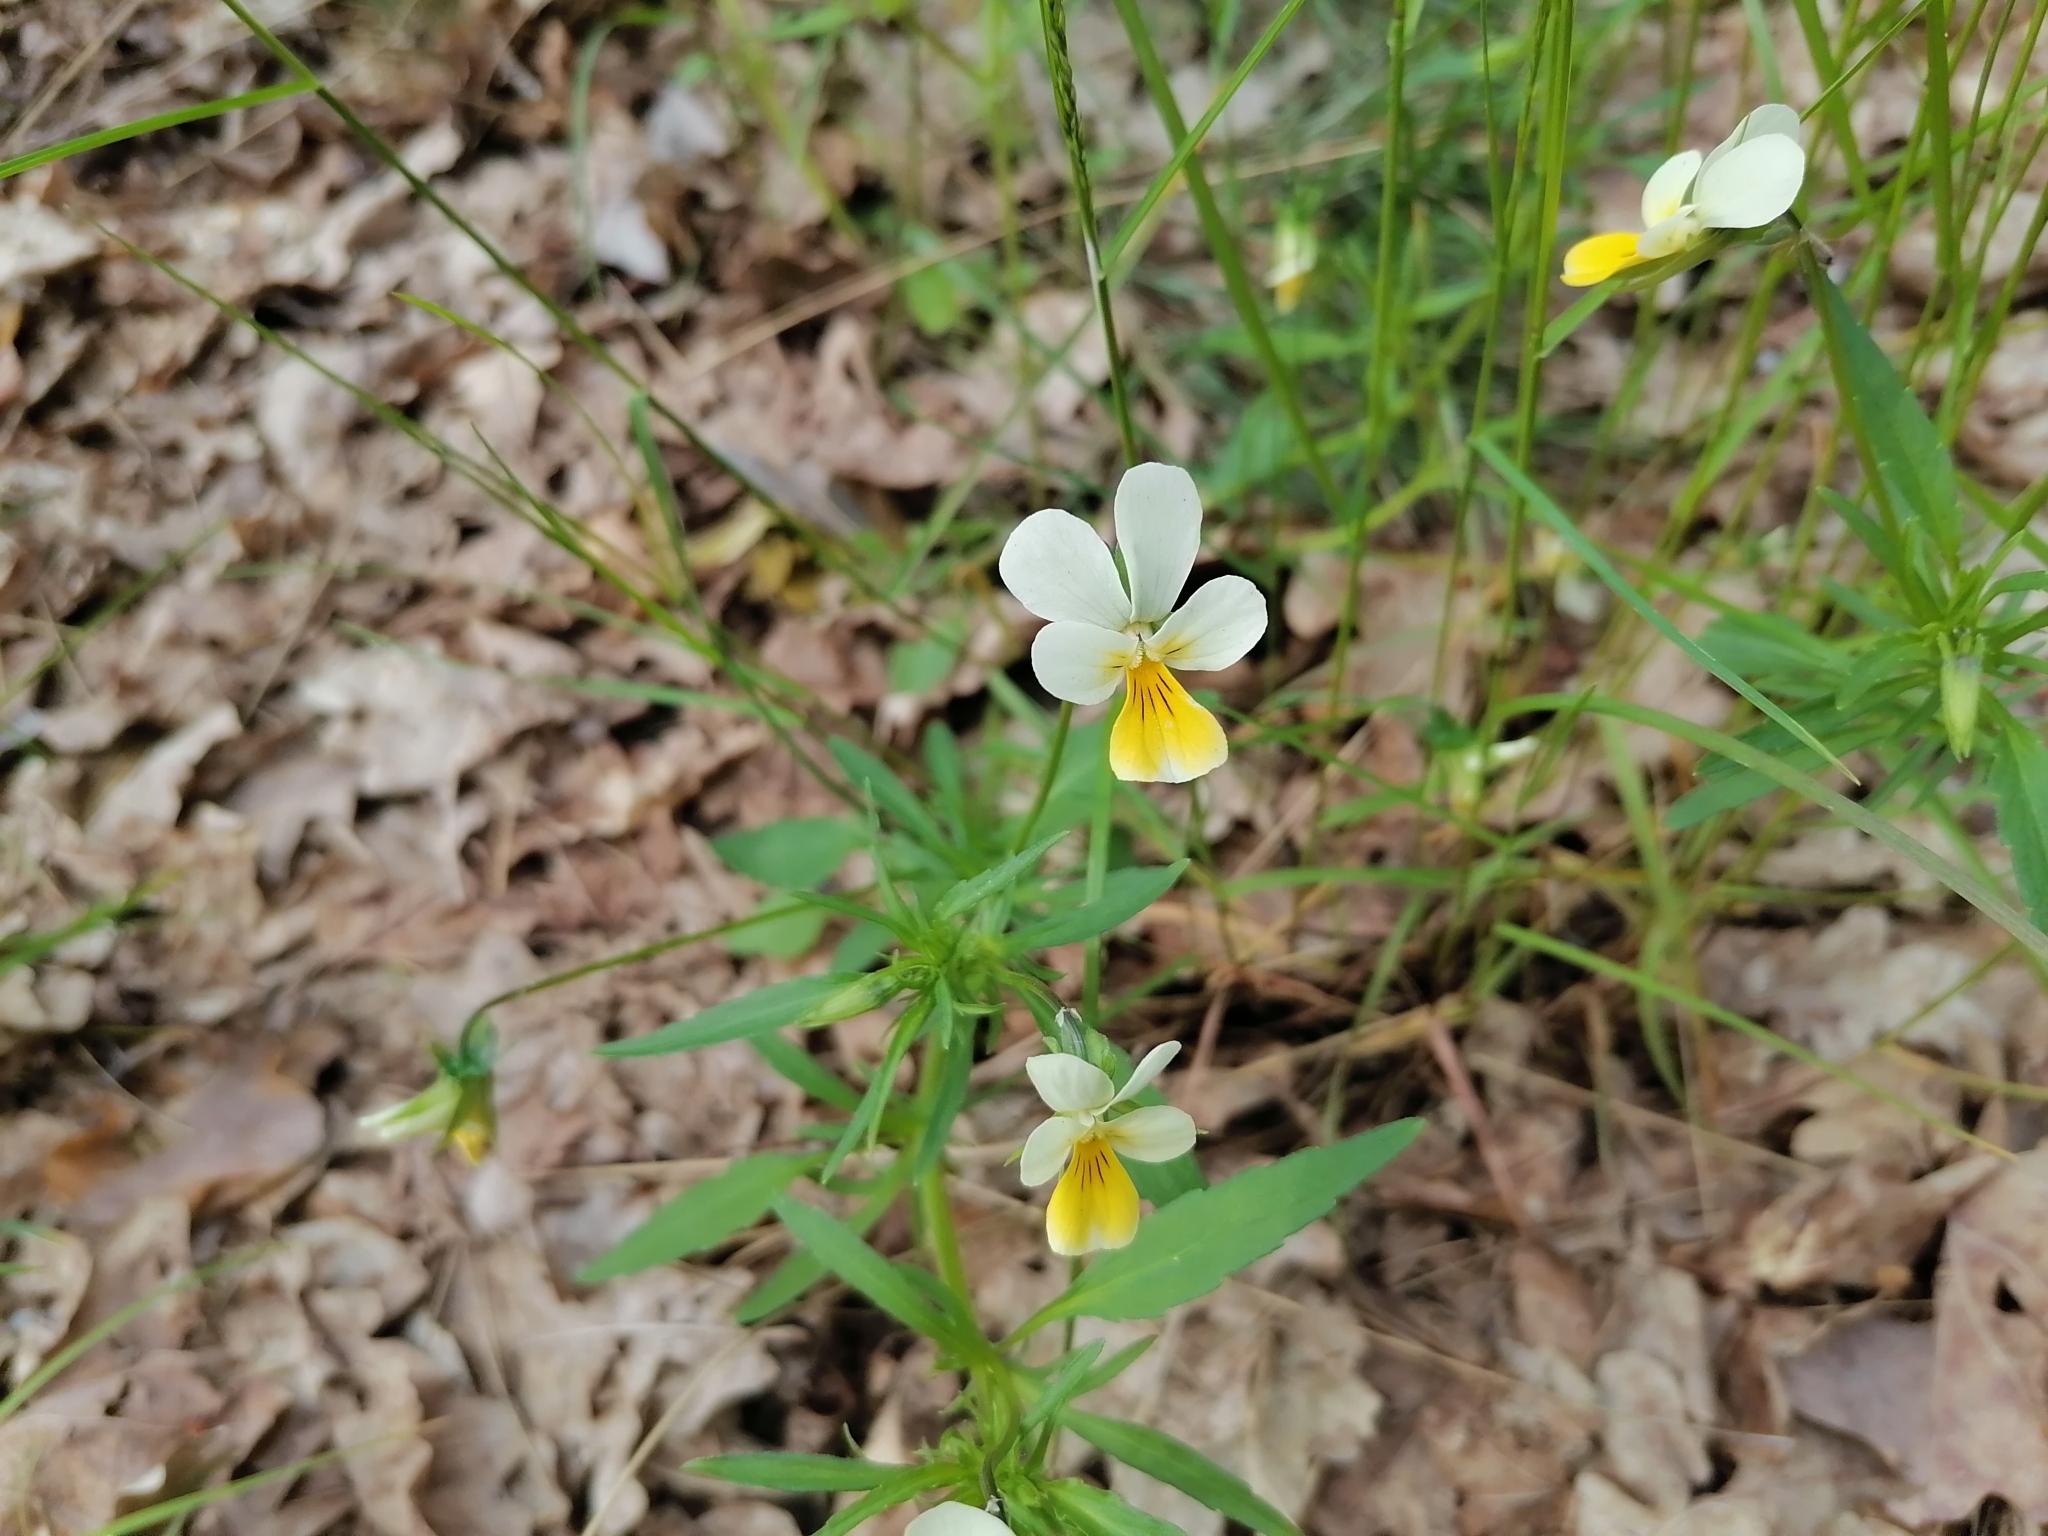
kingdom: Plantae
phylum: Tracheophyta
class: Magnoliopsida
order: Malpighiales
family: Violaceae
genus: Viola
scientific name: Viola tricolor
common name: Pansy
